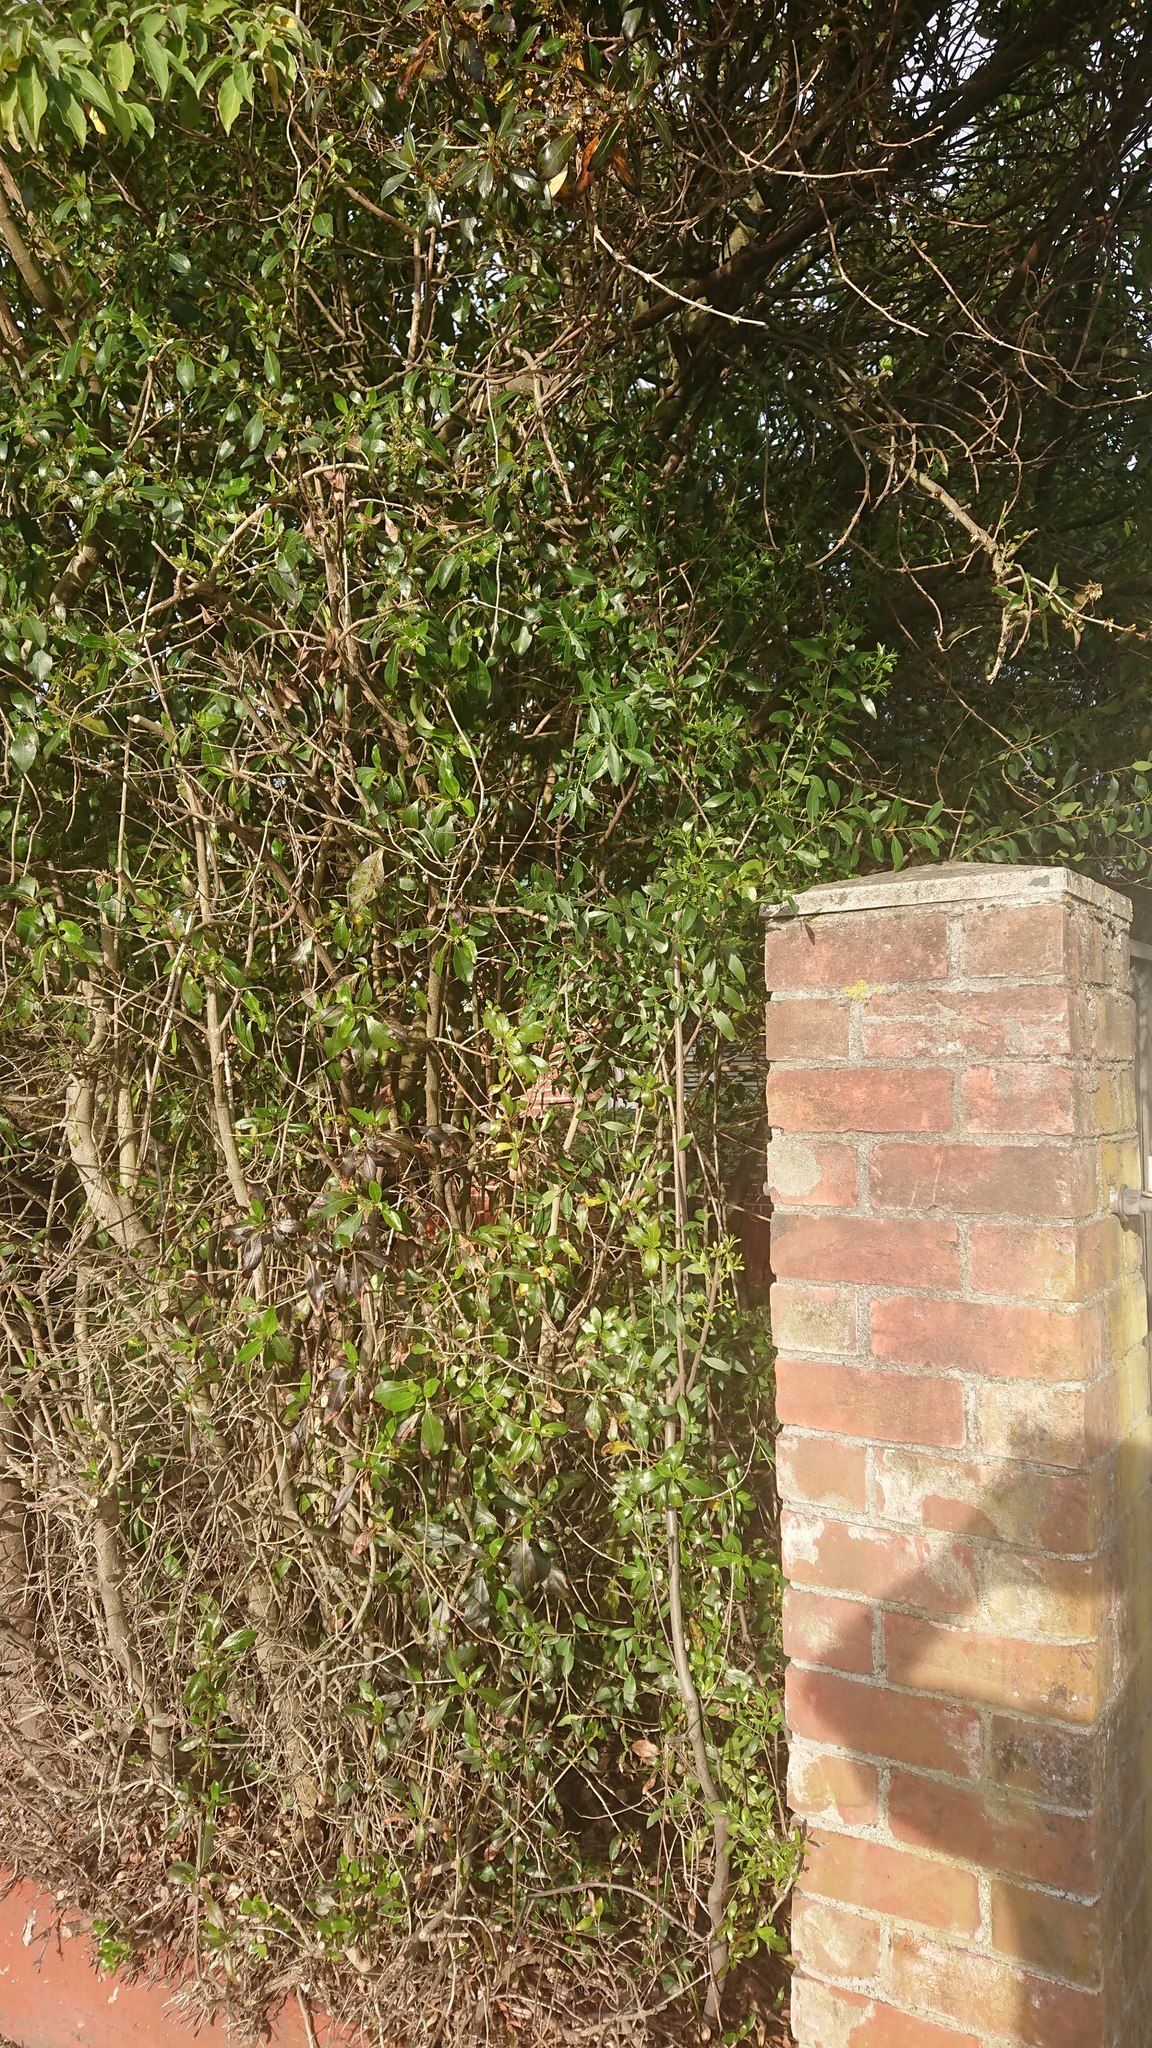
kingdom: Plantae
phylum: Tracheophyta
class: Magnoliopsida
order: Celastrales
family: Celastraceae
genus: Maytenus
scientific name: Maytenus boaria
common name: Mayten
